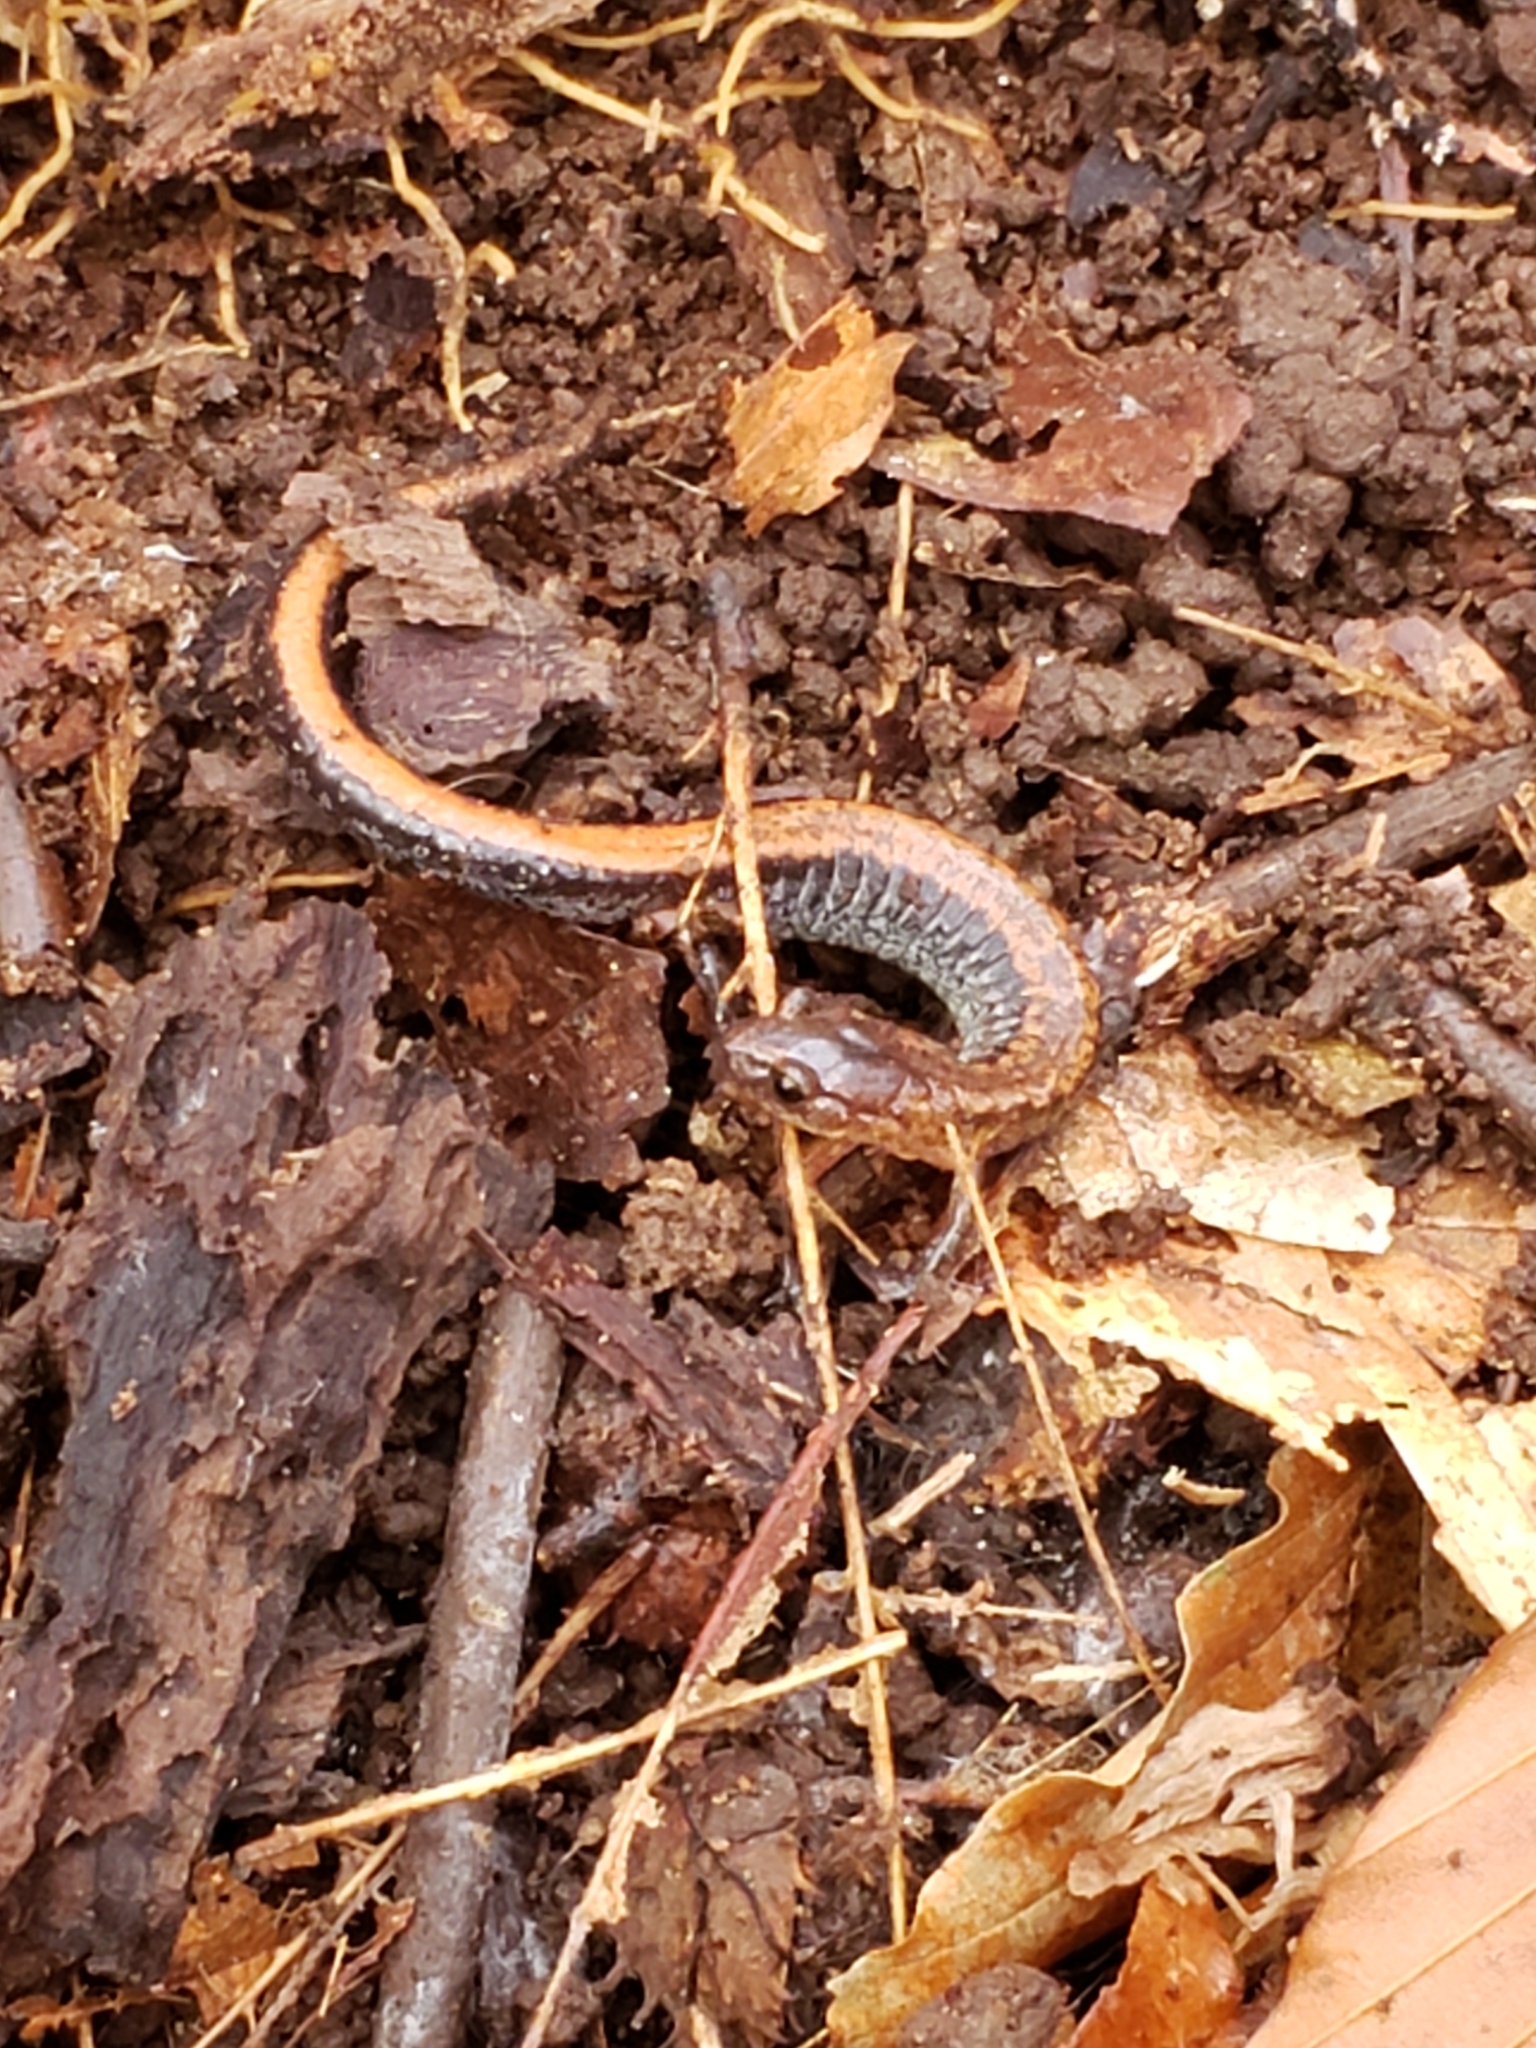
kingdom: Animalia
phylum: Chordata
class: Amphibia
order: Caudata
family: Plethodontidae
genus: Plethodon
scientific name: Plethodon cinereus
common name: Redback salamander
